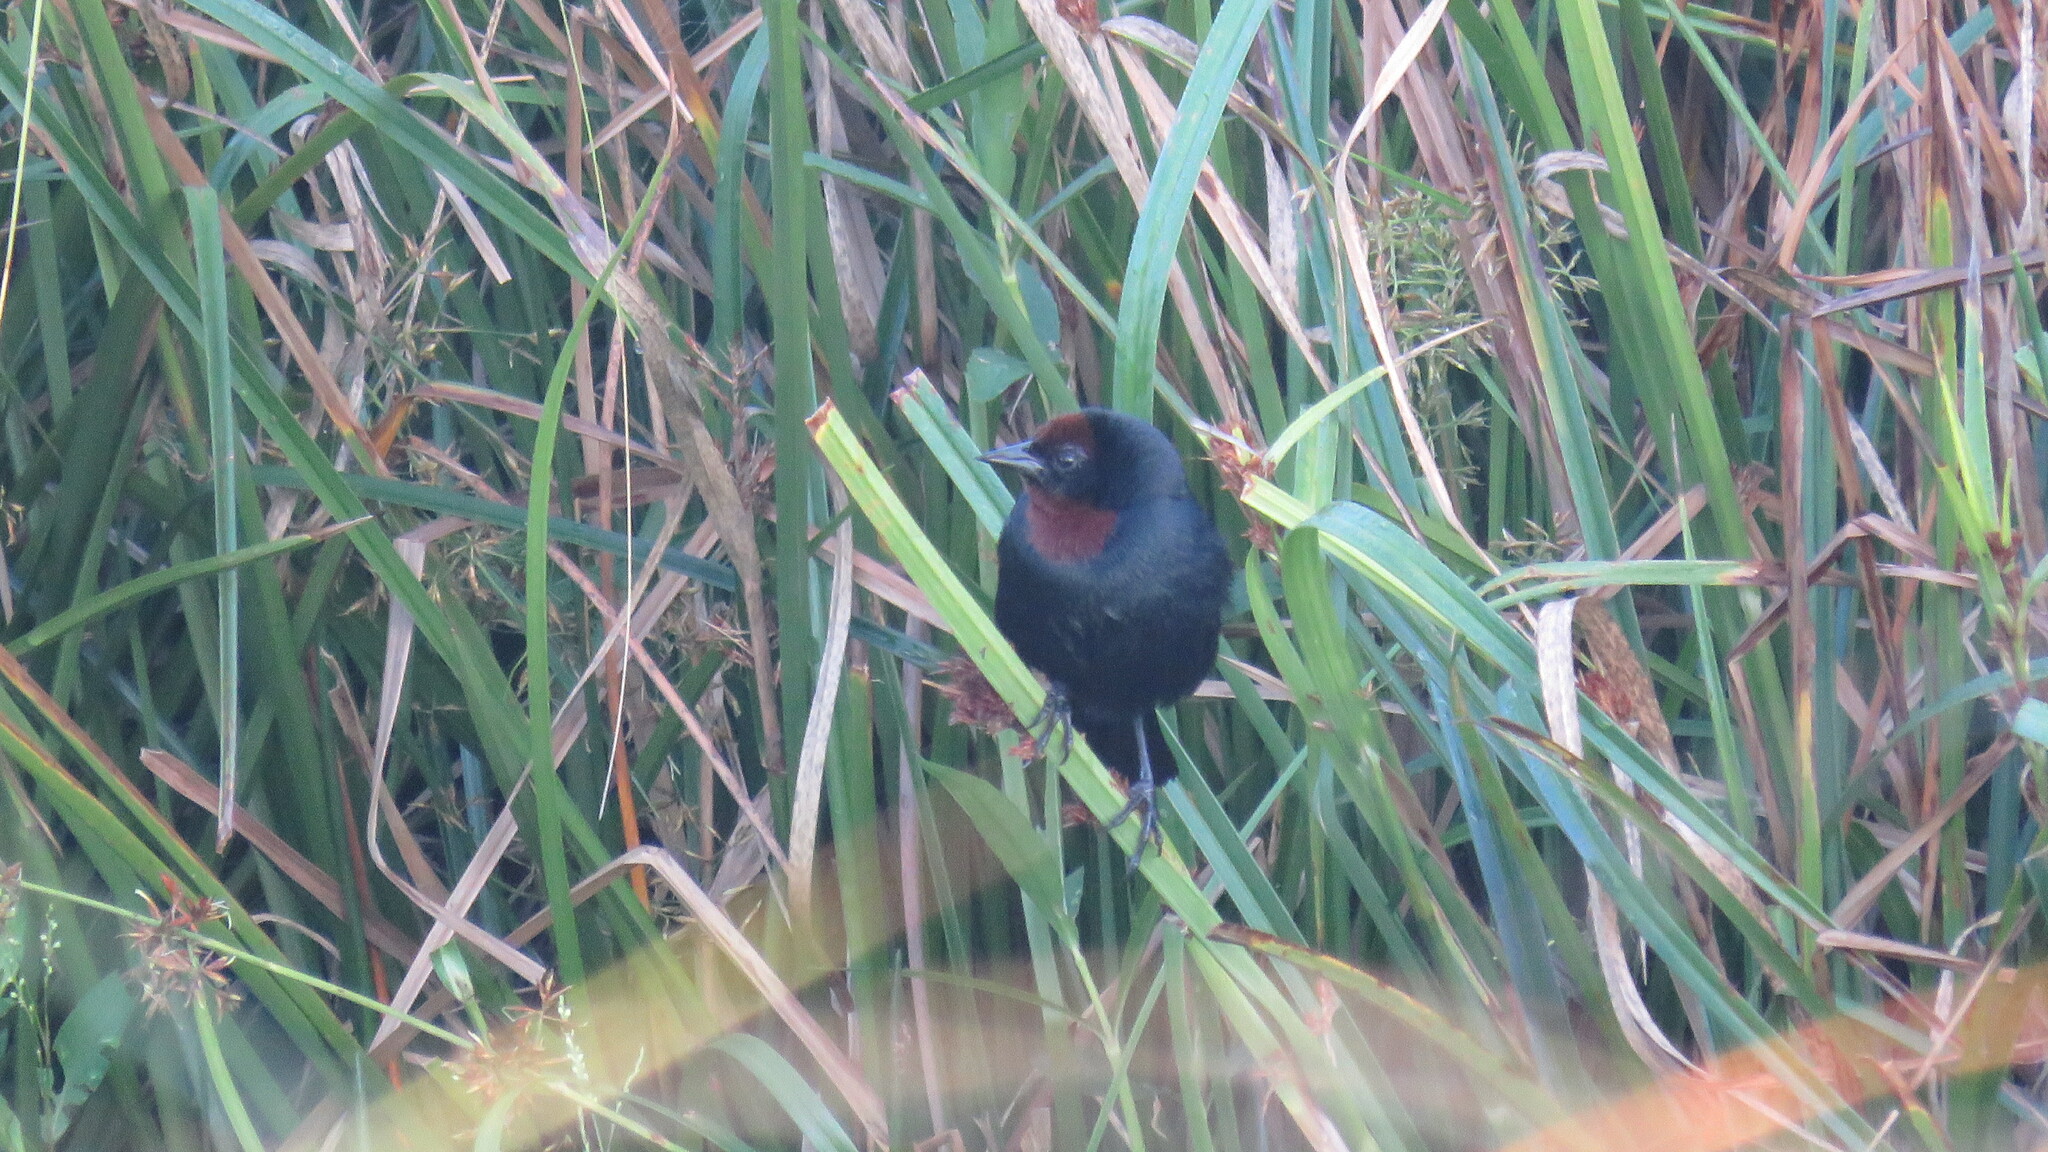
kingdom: Animalia
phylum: Chordata
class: Aves
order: Passeriformes
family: Icteridae
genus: Chrysomus
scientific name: Chrysomus ruficapillus
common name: Chestnut-capped blackbird
